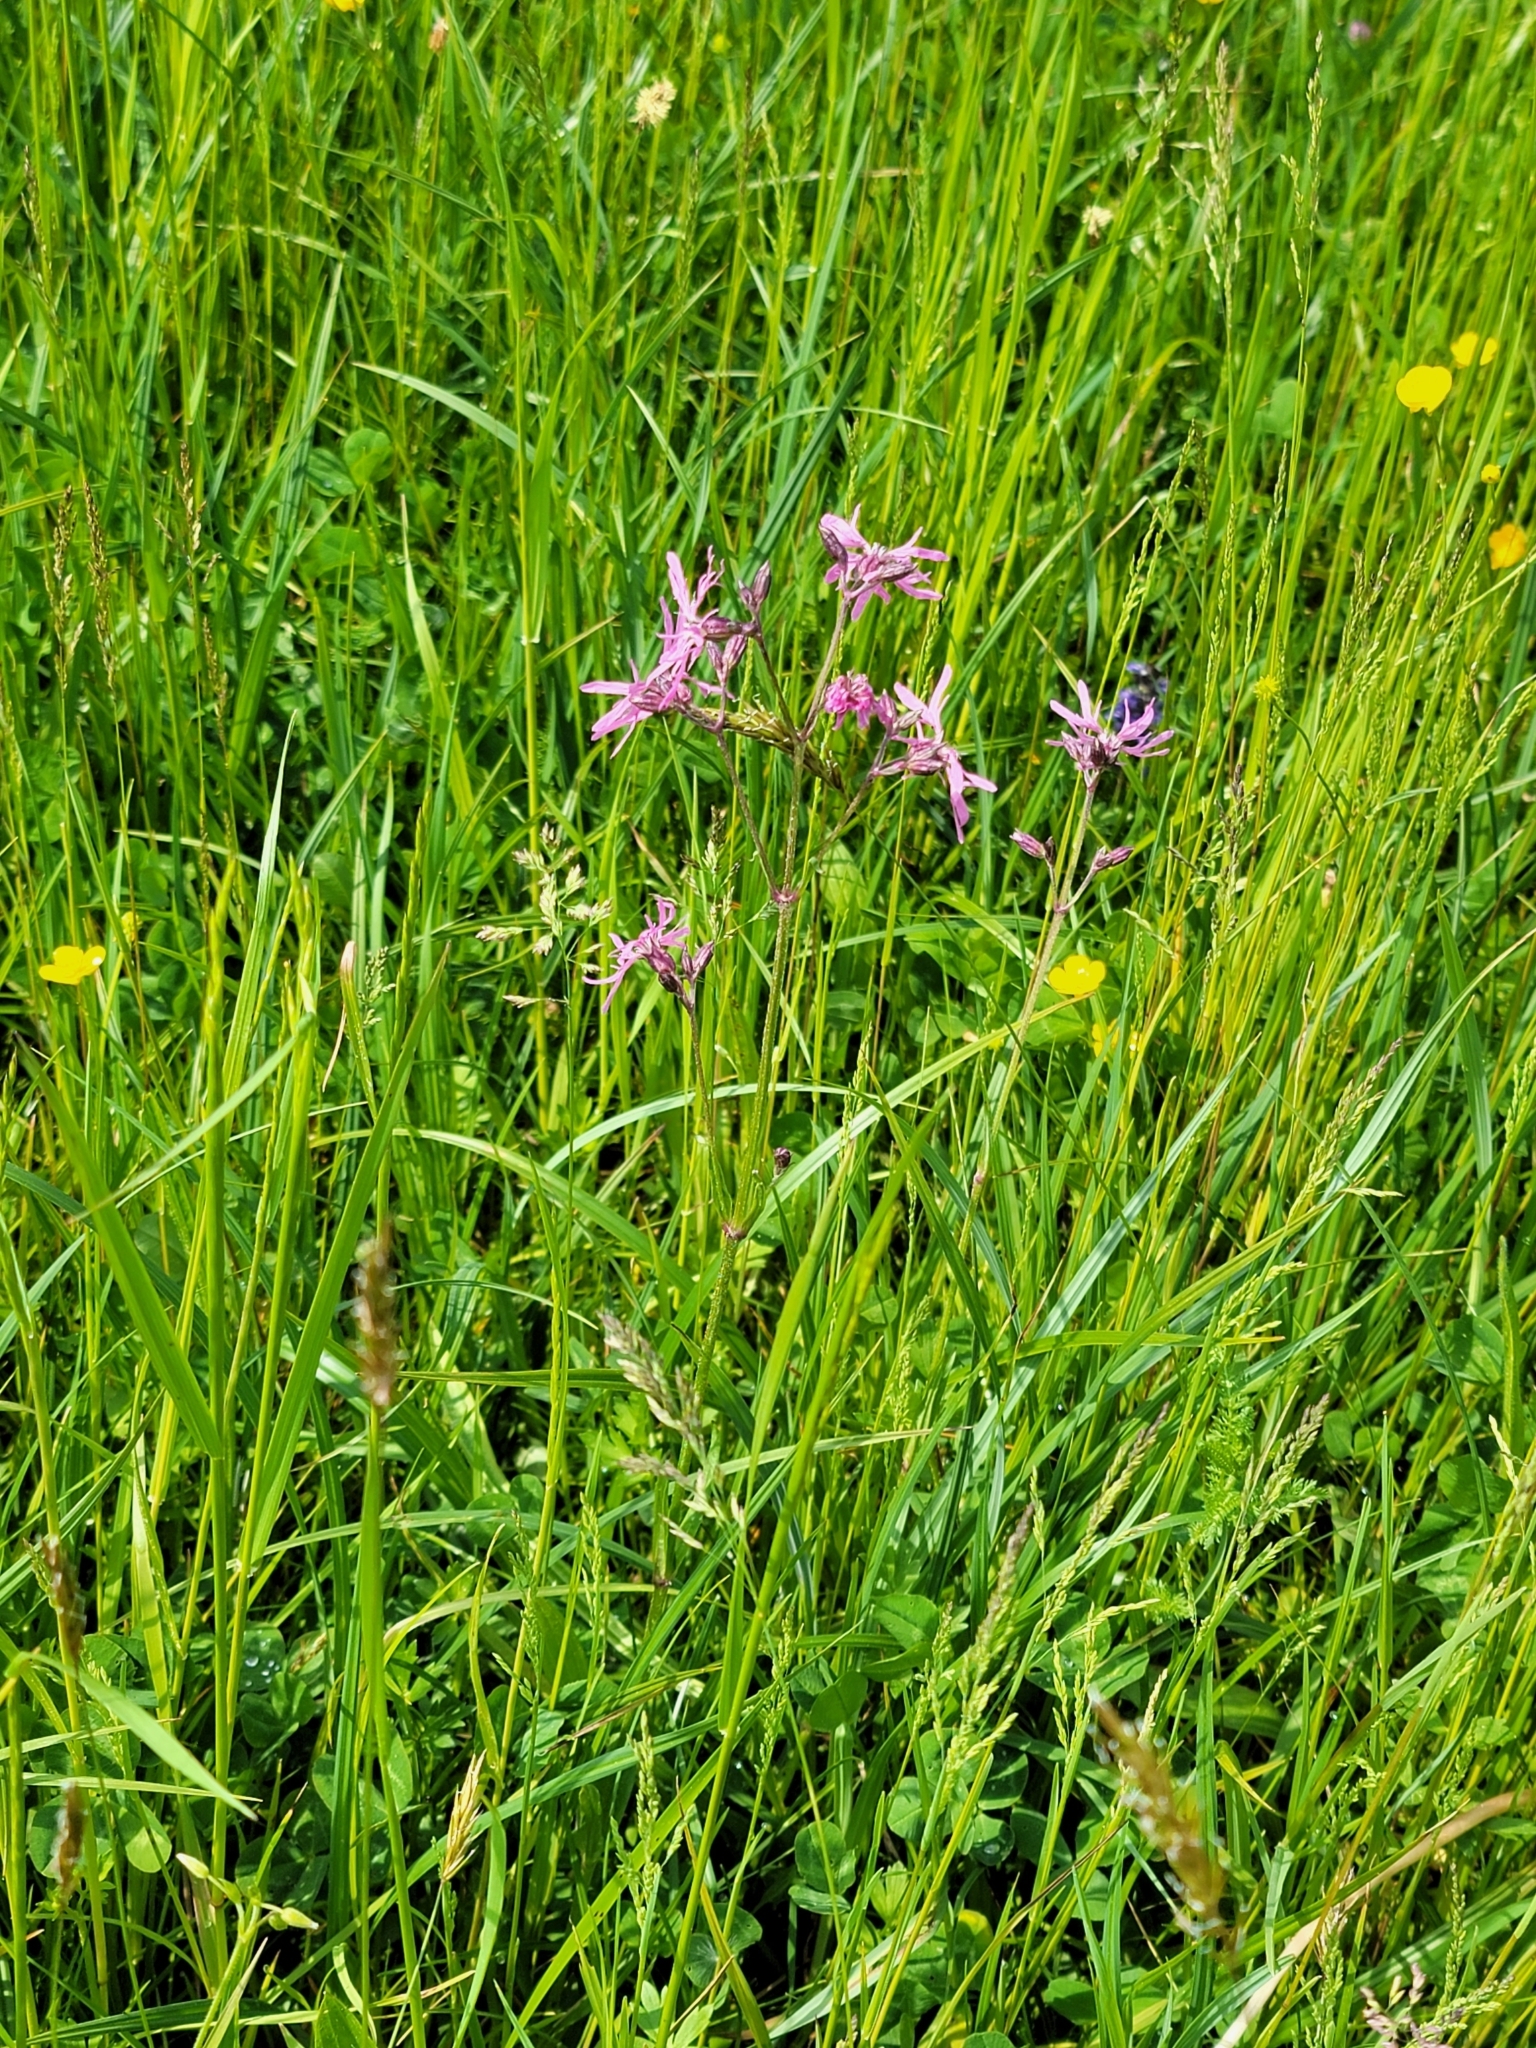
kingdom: Plantae
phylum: Tracheophyta
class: Magnoliopsida
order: Caryophyllales
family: Caryophyllaceae
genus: Silene
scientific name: Silene flos-cuculi
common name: Ragged-robin
